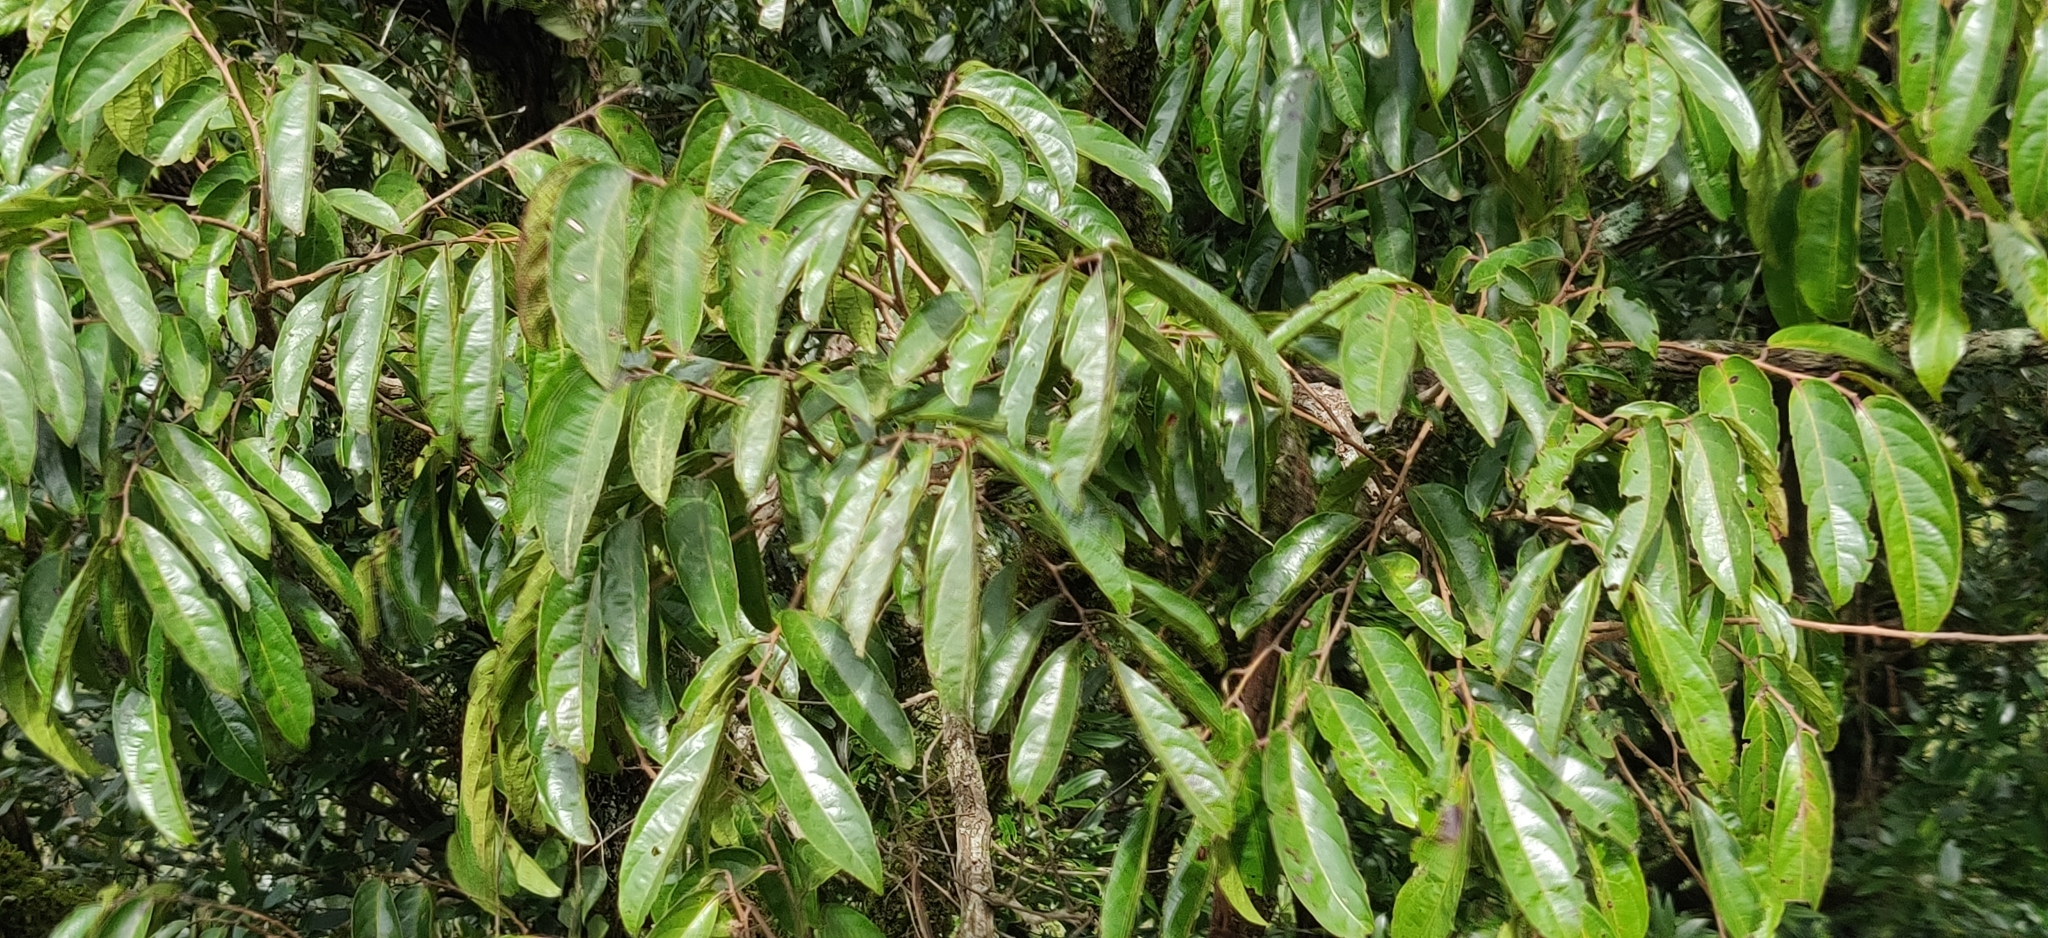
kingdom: Plantae
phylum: Tracheophyta
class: Magnoliopsida
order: Malpighiales
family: Phyllanthaceae
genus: Glochidion
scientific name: Glochidion hohenackeri
